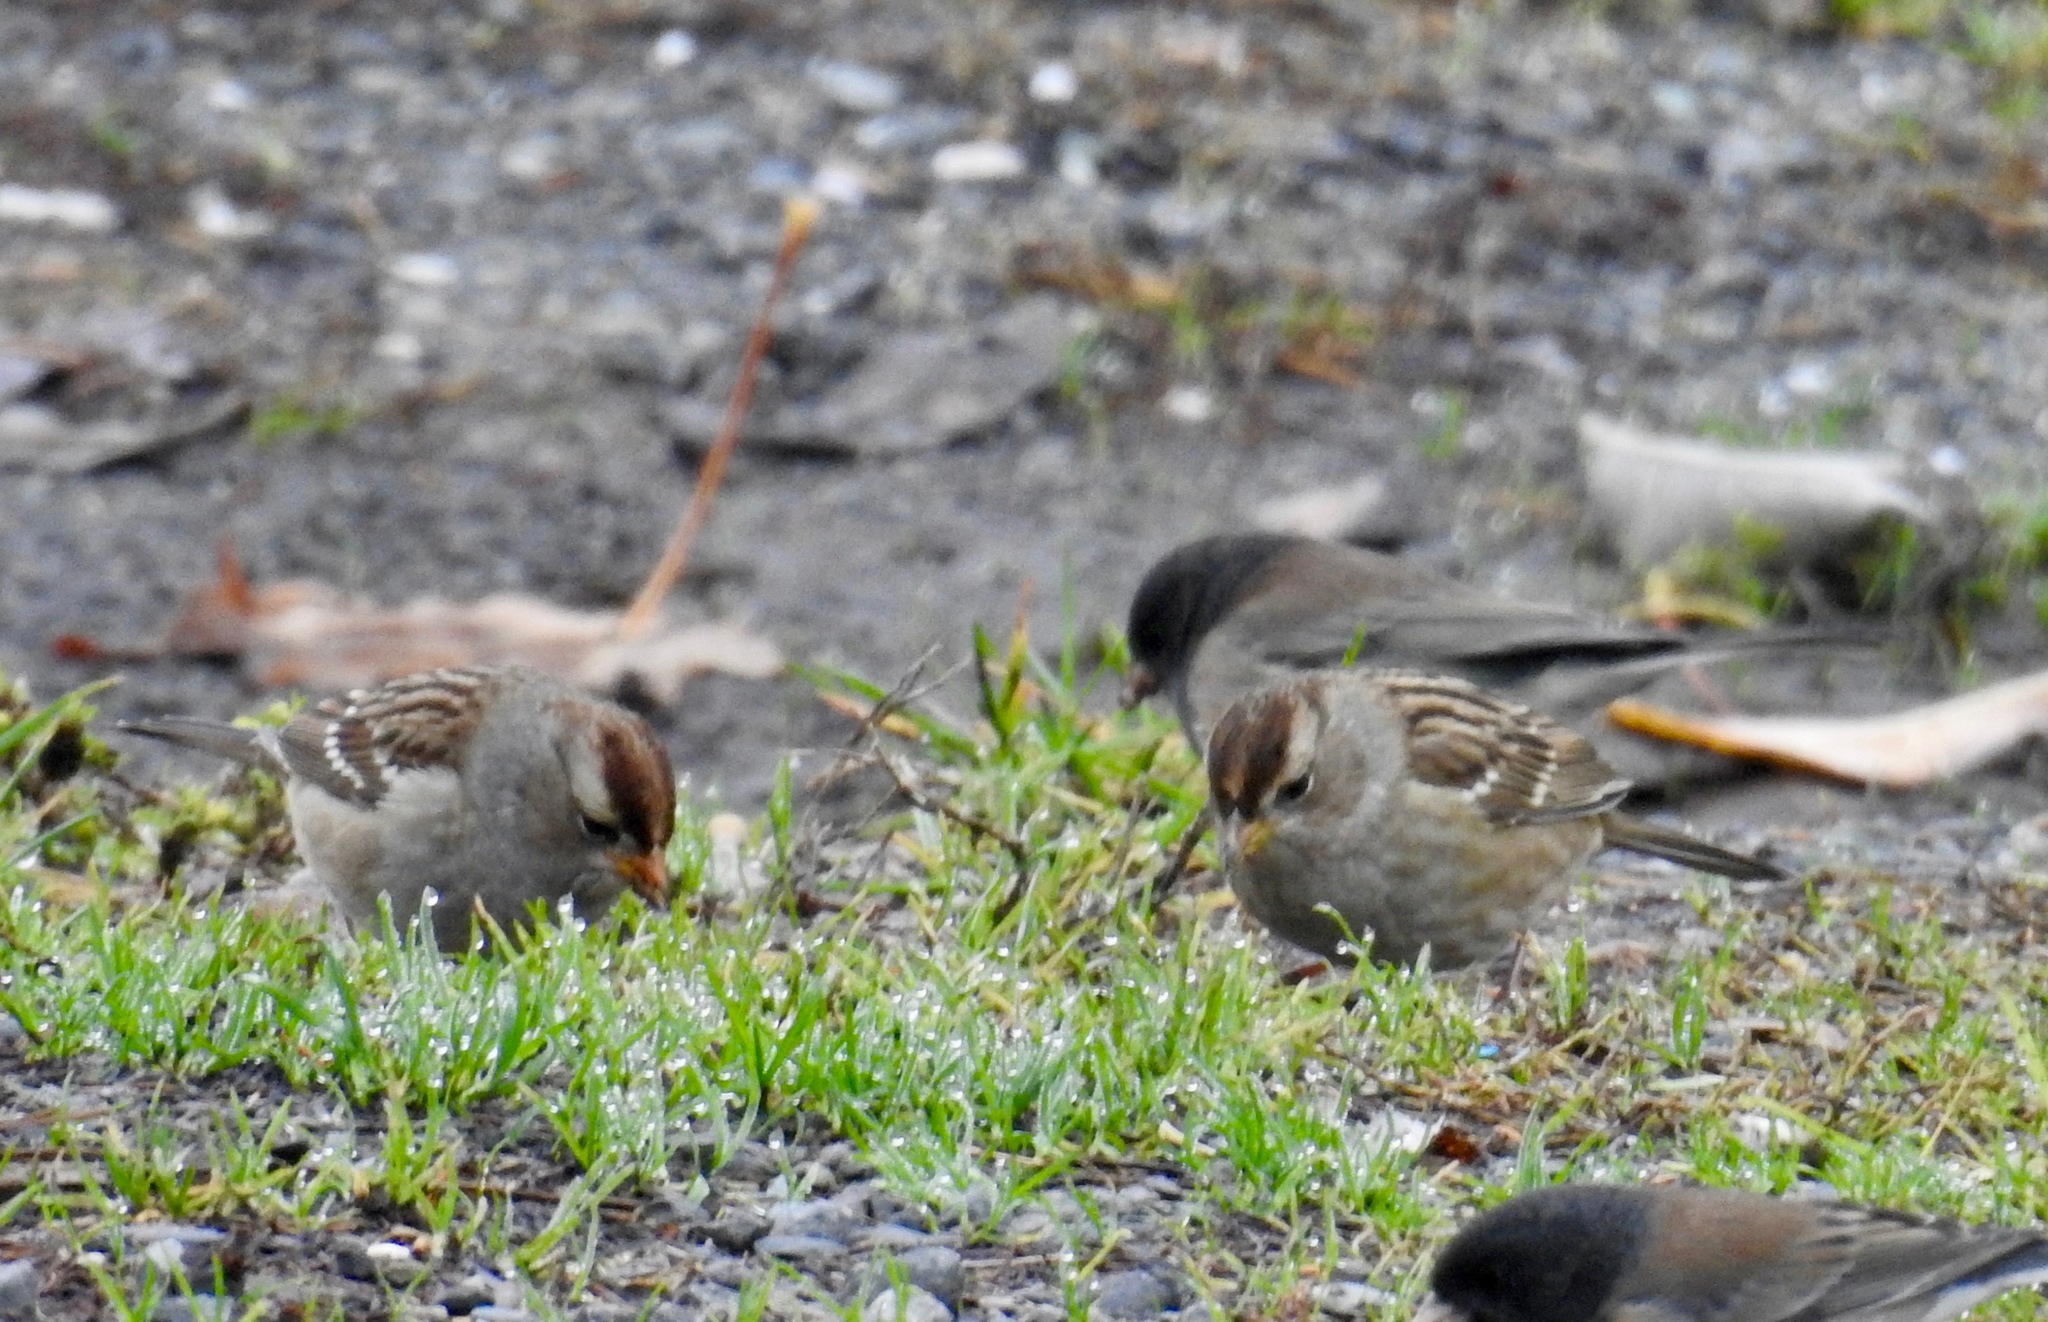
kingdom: Animalia
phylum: Chordata
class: Aves
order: Passeriformes
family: Passerellidae
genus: Zonotrichia
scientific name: Zonotrichia leucophrys
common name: White-crowned sparrow
